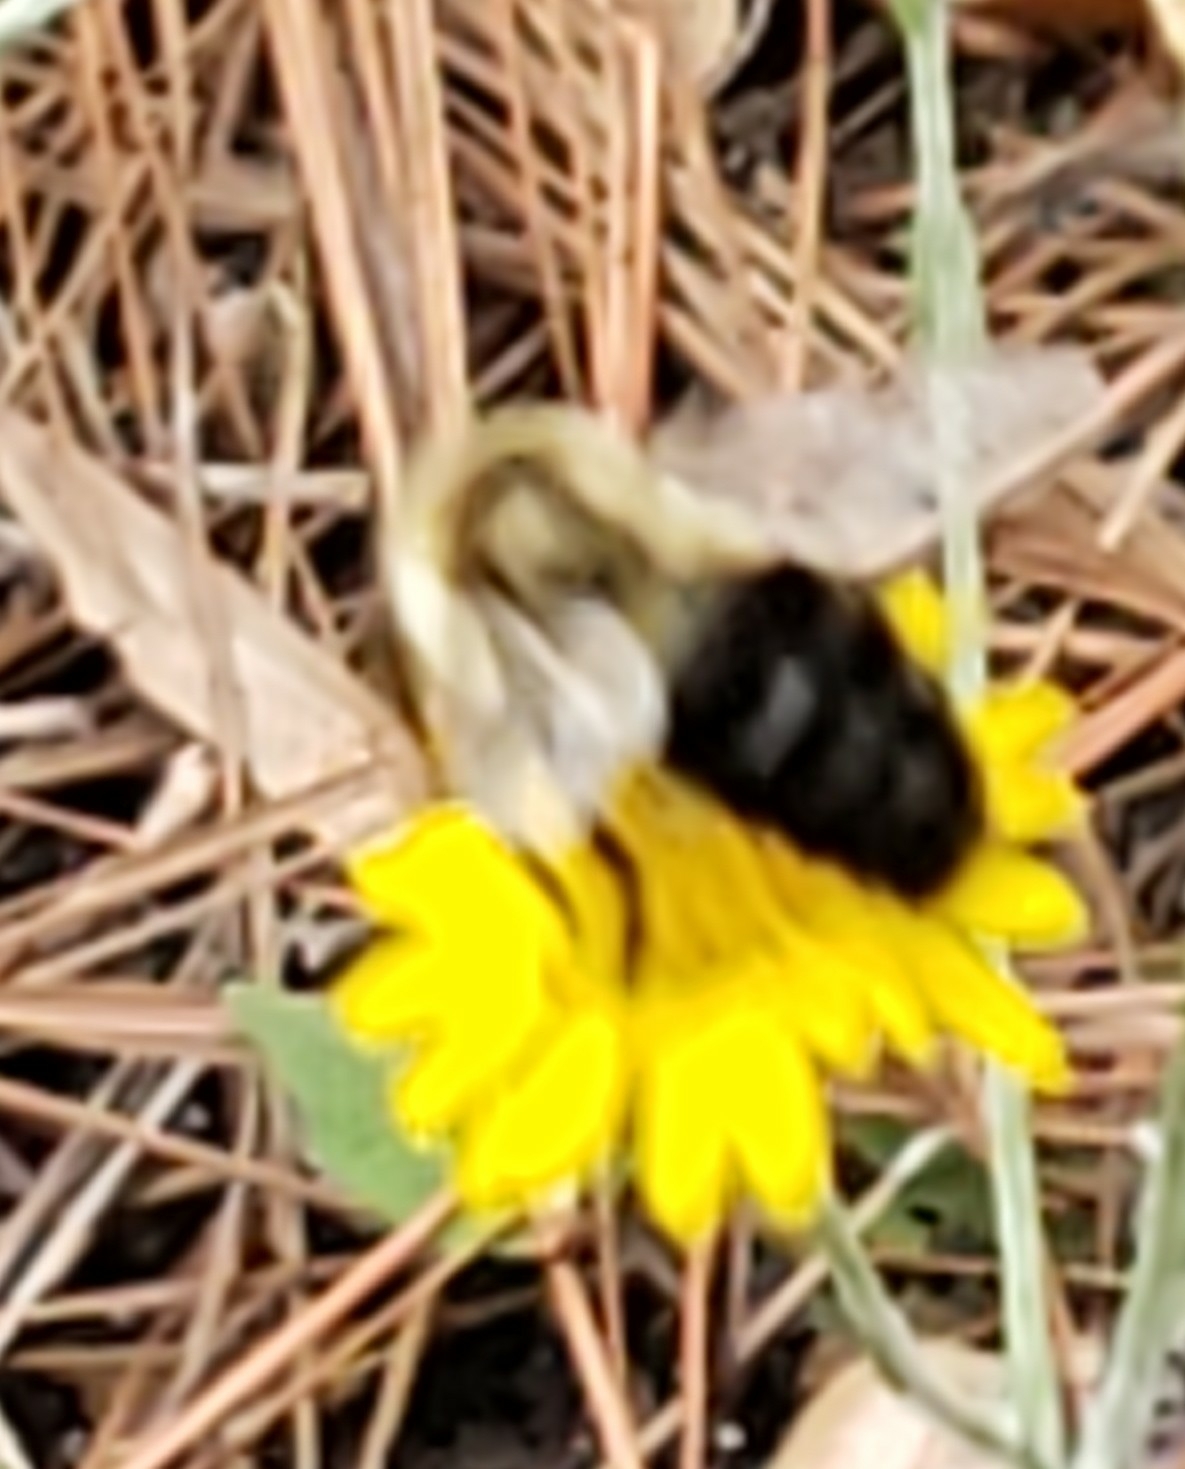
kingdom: Animalia
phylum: Arthropoda
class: Insecta
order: Hymenoptera
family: Apidae
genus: Bombus
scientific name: Bombus impatiens
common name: Common eastern bumble bee
